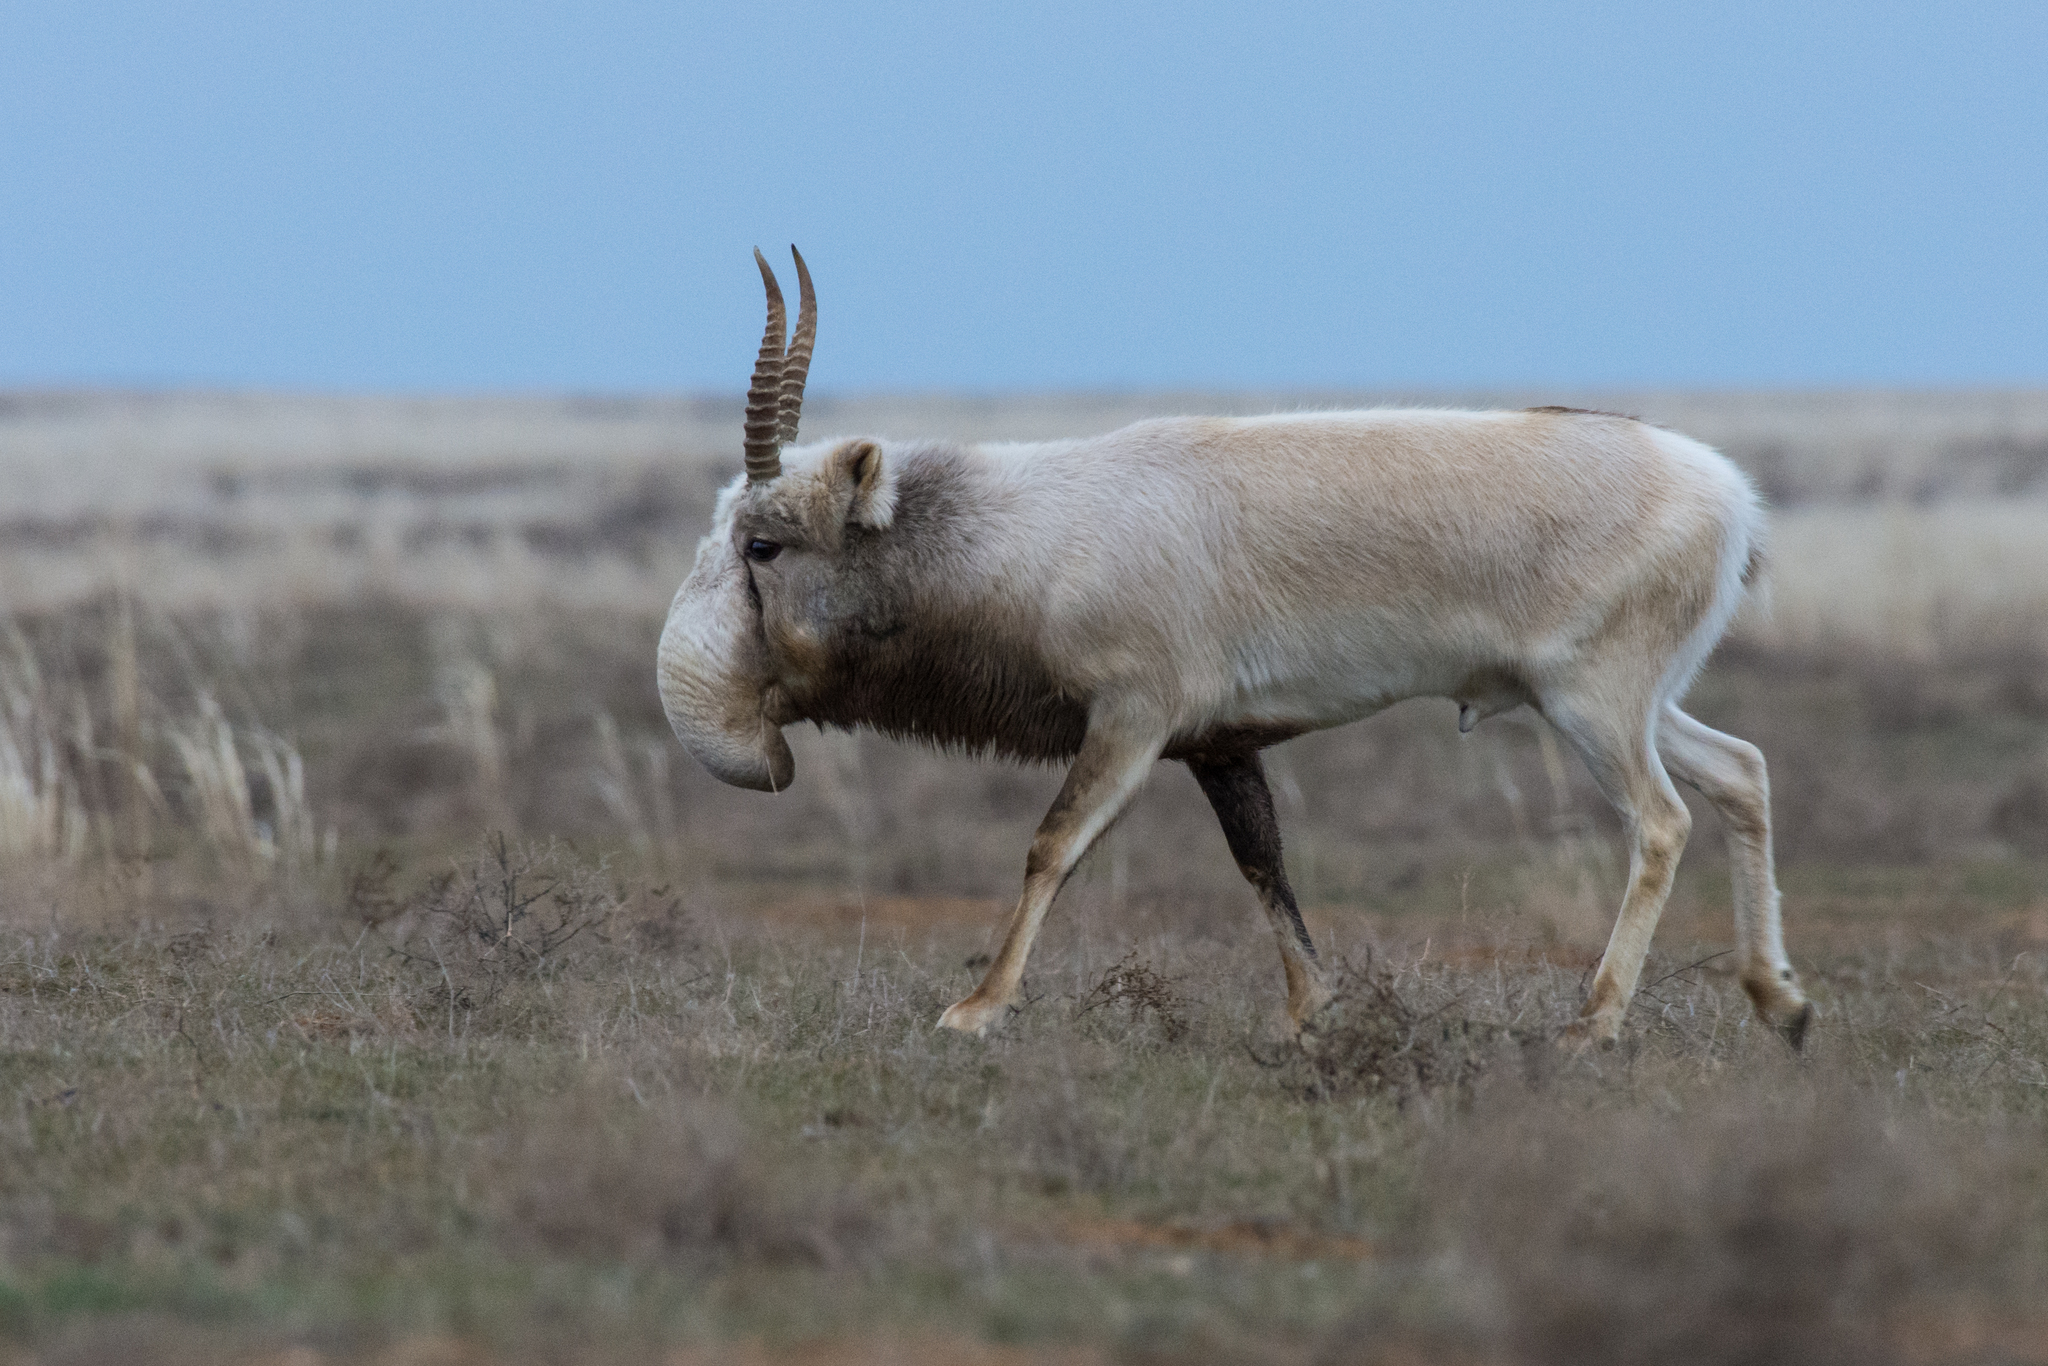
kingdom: Animalia
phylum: Chordata
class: Mammalia
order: Artiodactyla
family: Bovidae
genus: Saiga
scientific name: Saiga tatarica
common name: Saiga
